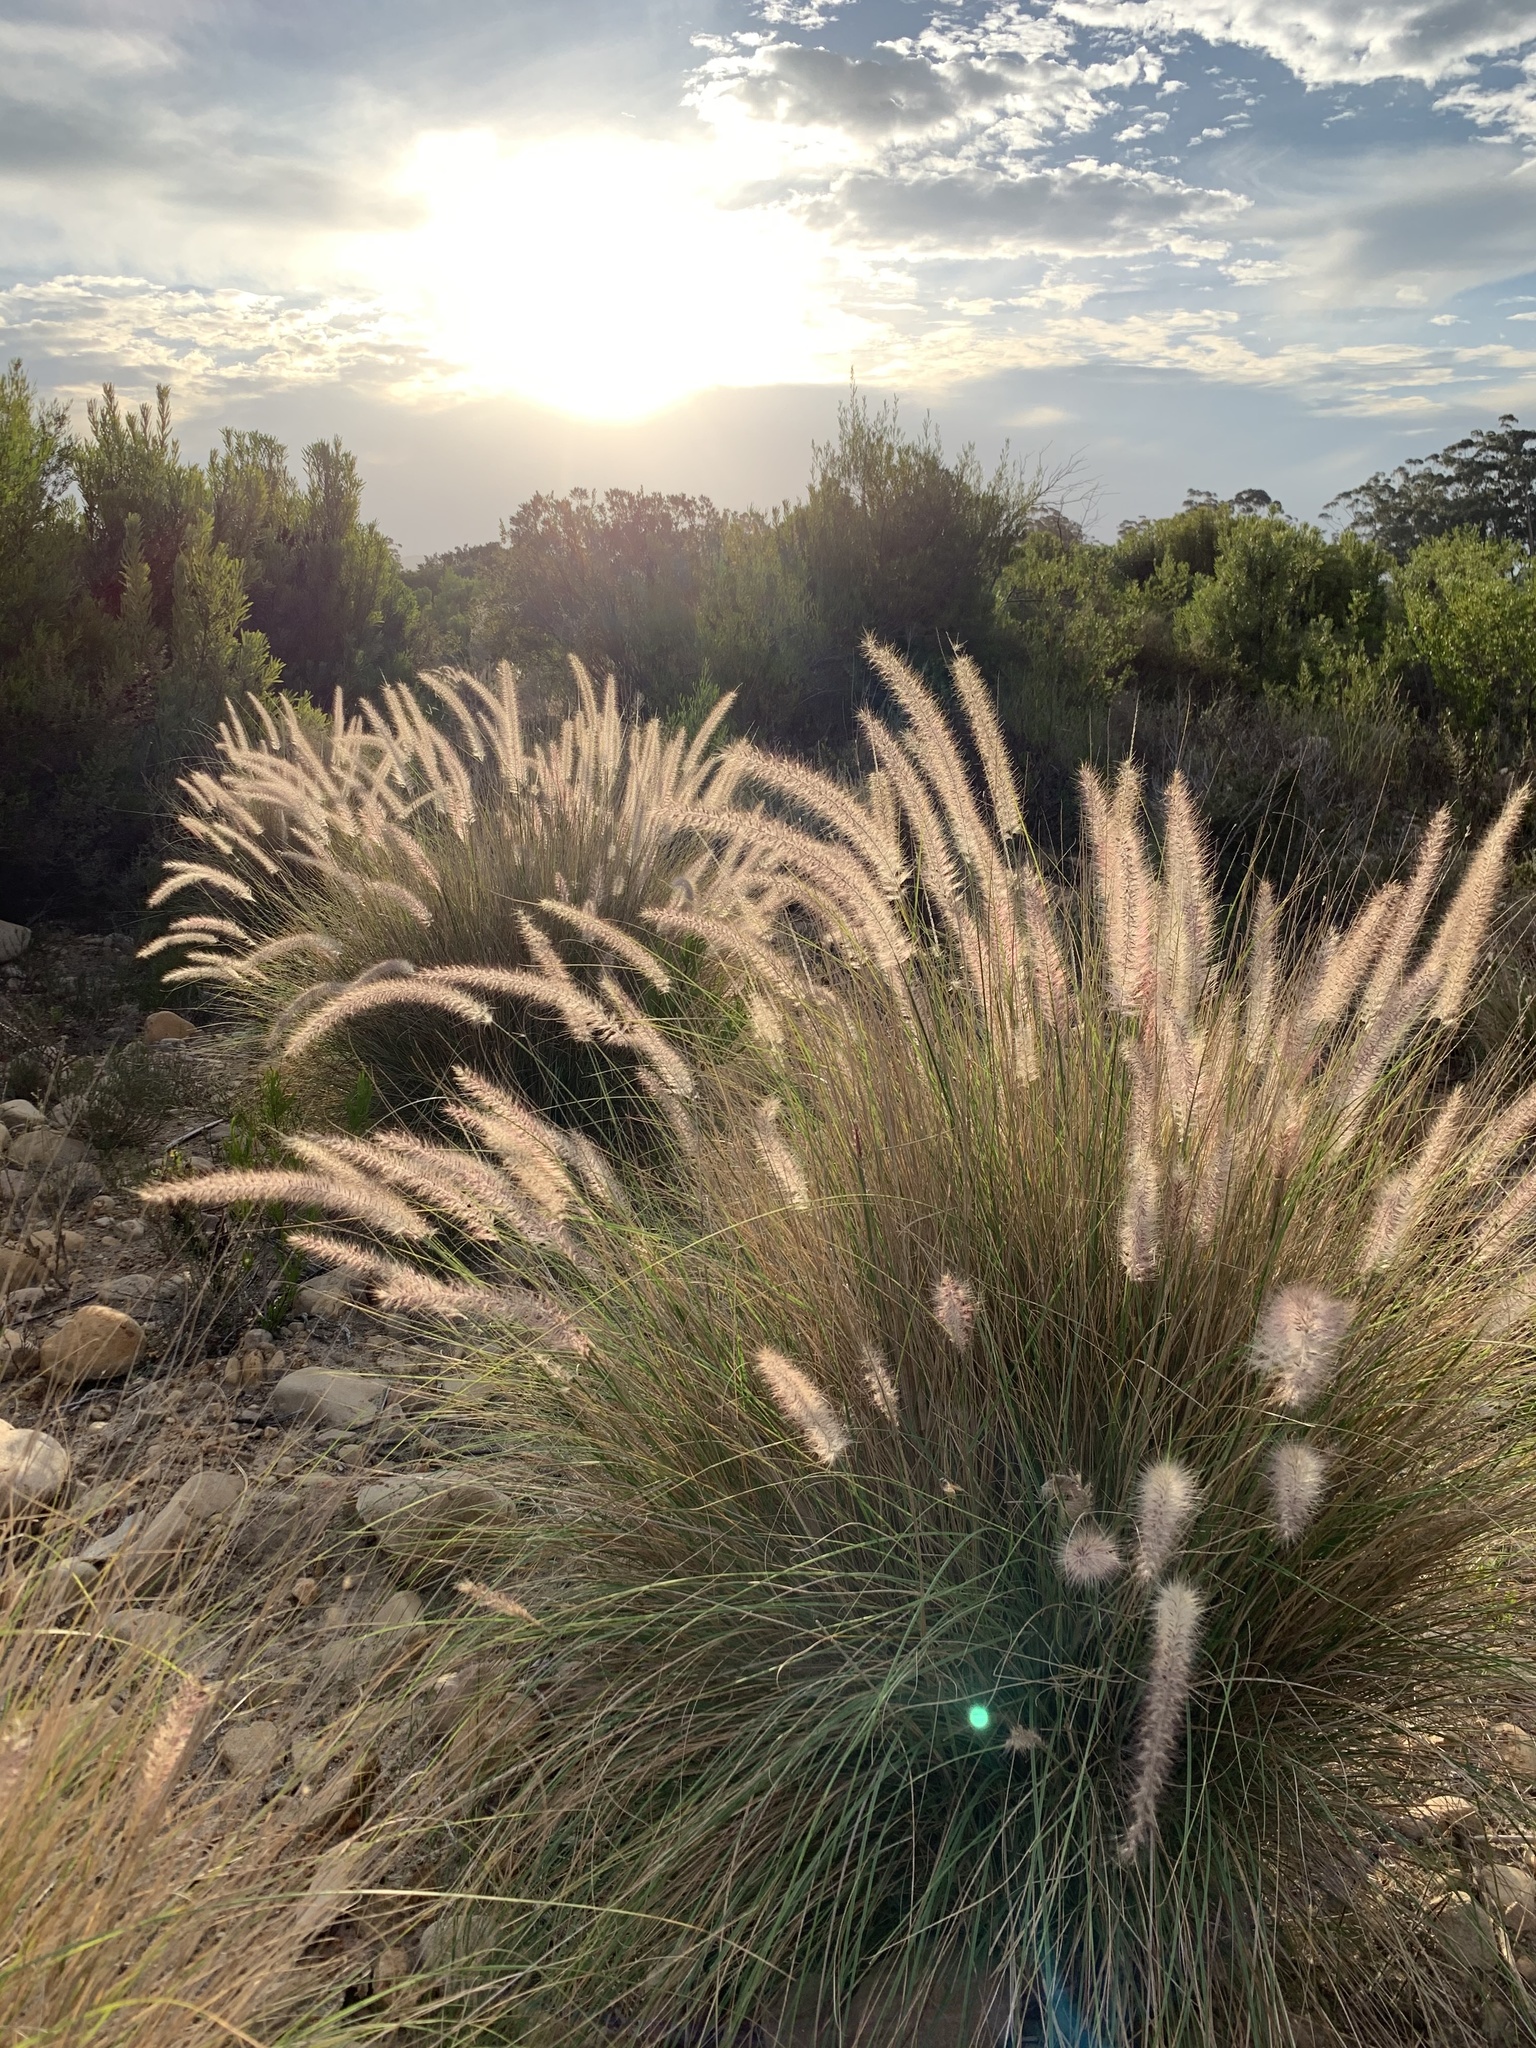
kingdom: Plantae
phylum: Tracheophyta
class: Liliopsida
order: Poales
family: Poaceae
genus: Cenchrus
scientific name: Cenchrus setaceus
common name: Crimson fountaingrass
